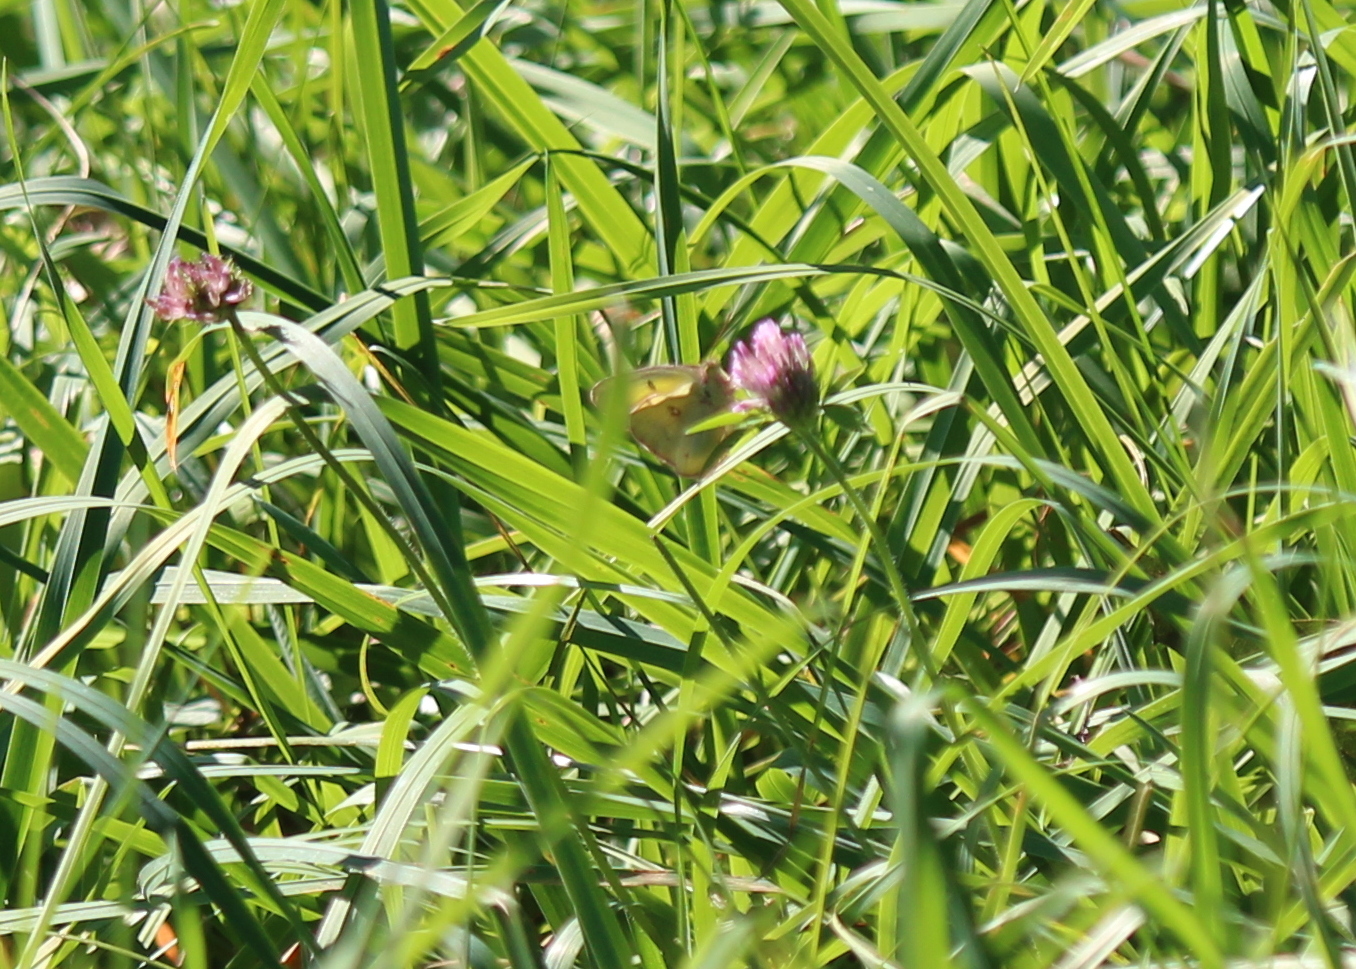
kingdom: Animalia
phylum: Arthropoda
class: Insecta
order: Lepidoptera
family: Pieridae
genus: Colias
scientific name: Colias philodice
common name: Clouded sulphur
